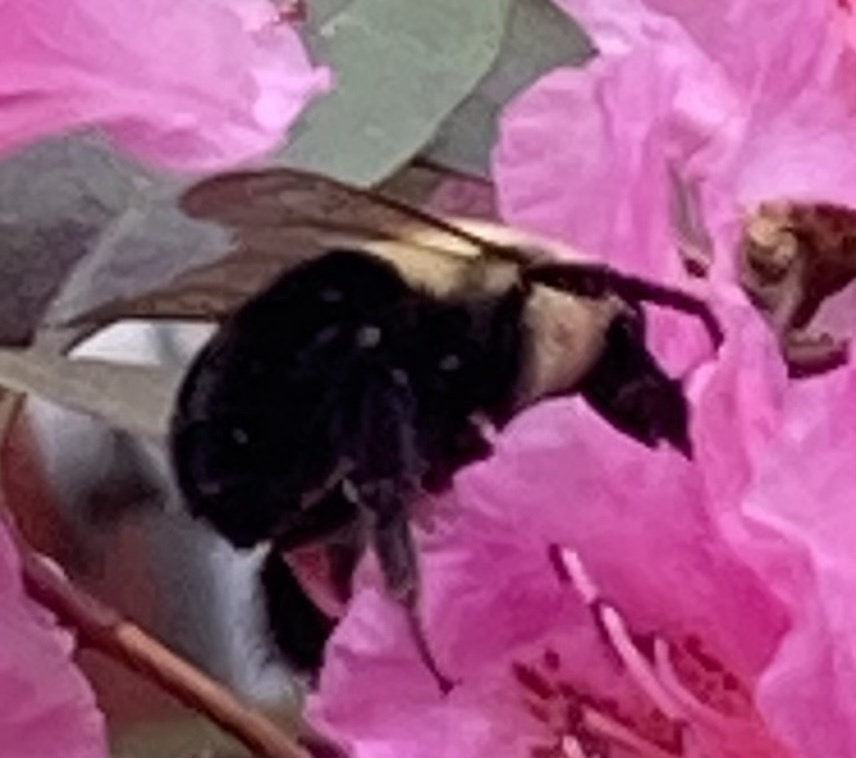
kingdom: Animalia
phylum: Arthropoda
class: Insecta
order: Hymenoptera
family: Apidae
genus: Bombus
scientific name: Bombus impatiens
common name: Common eastern bumble bee
